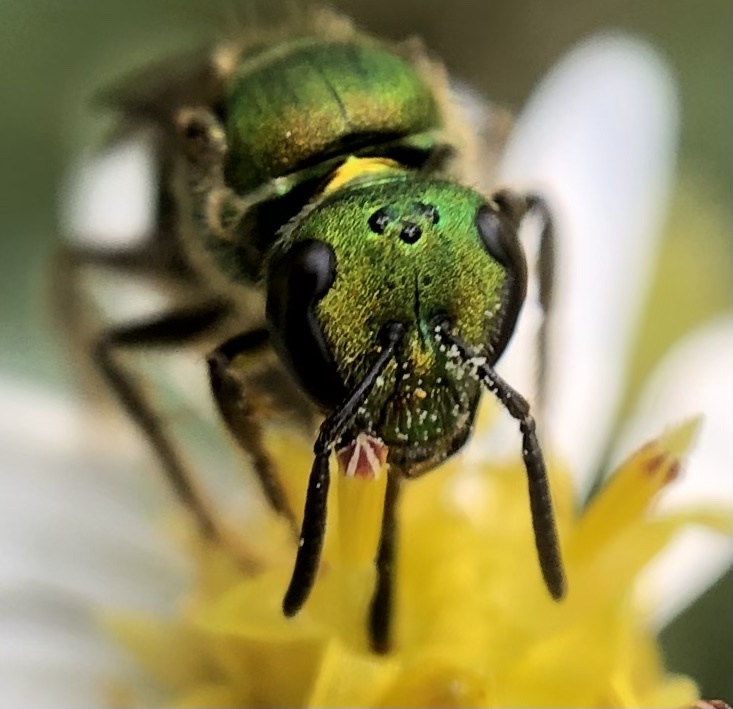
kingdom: Animalia
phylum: Arthropoda
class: Insecta
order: Hymenoptera
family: Halictidae
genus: Augochlora
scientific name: Augochlora pura
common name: Pure green sweat bee
